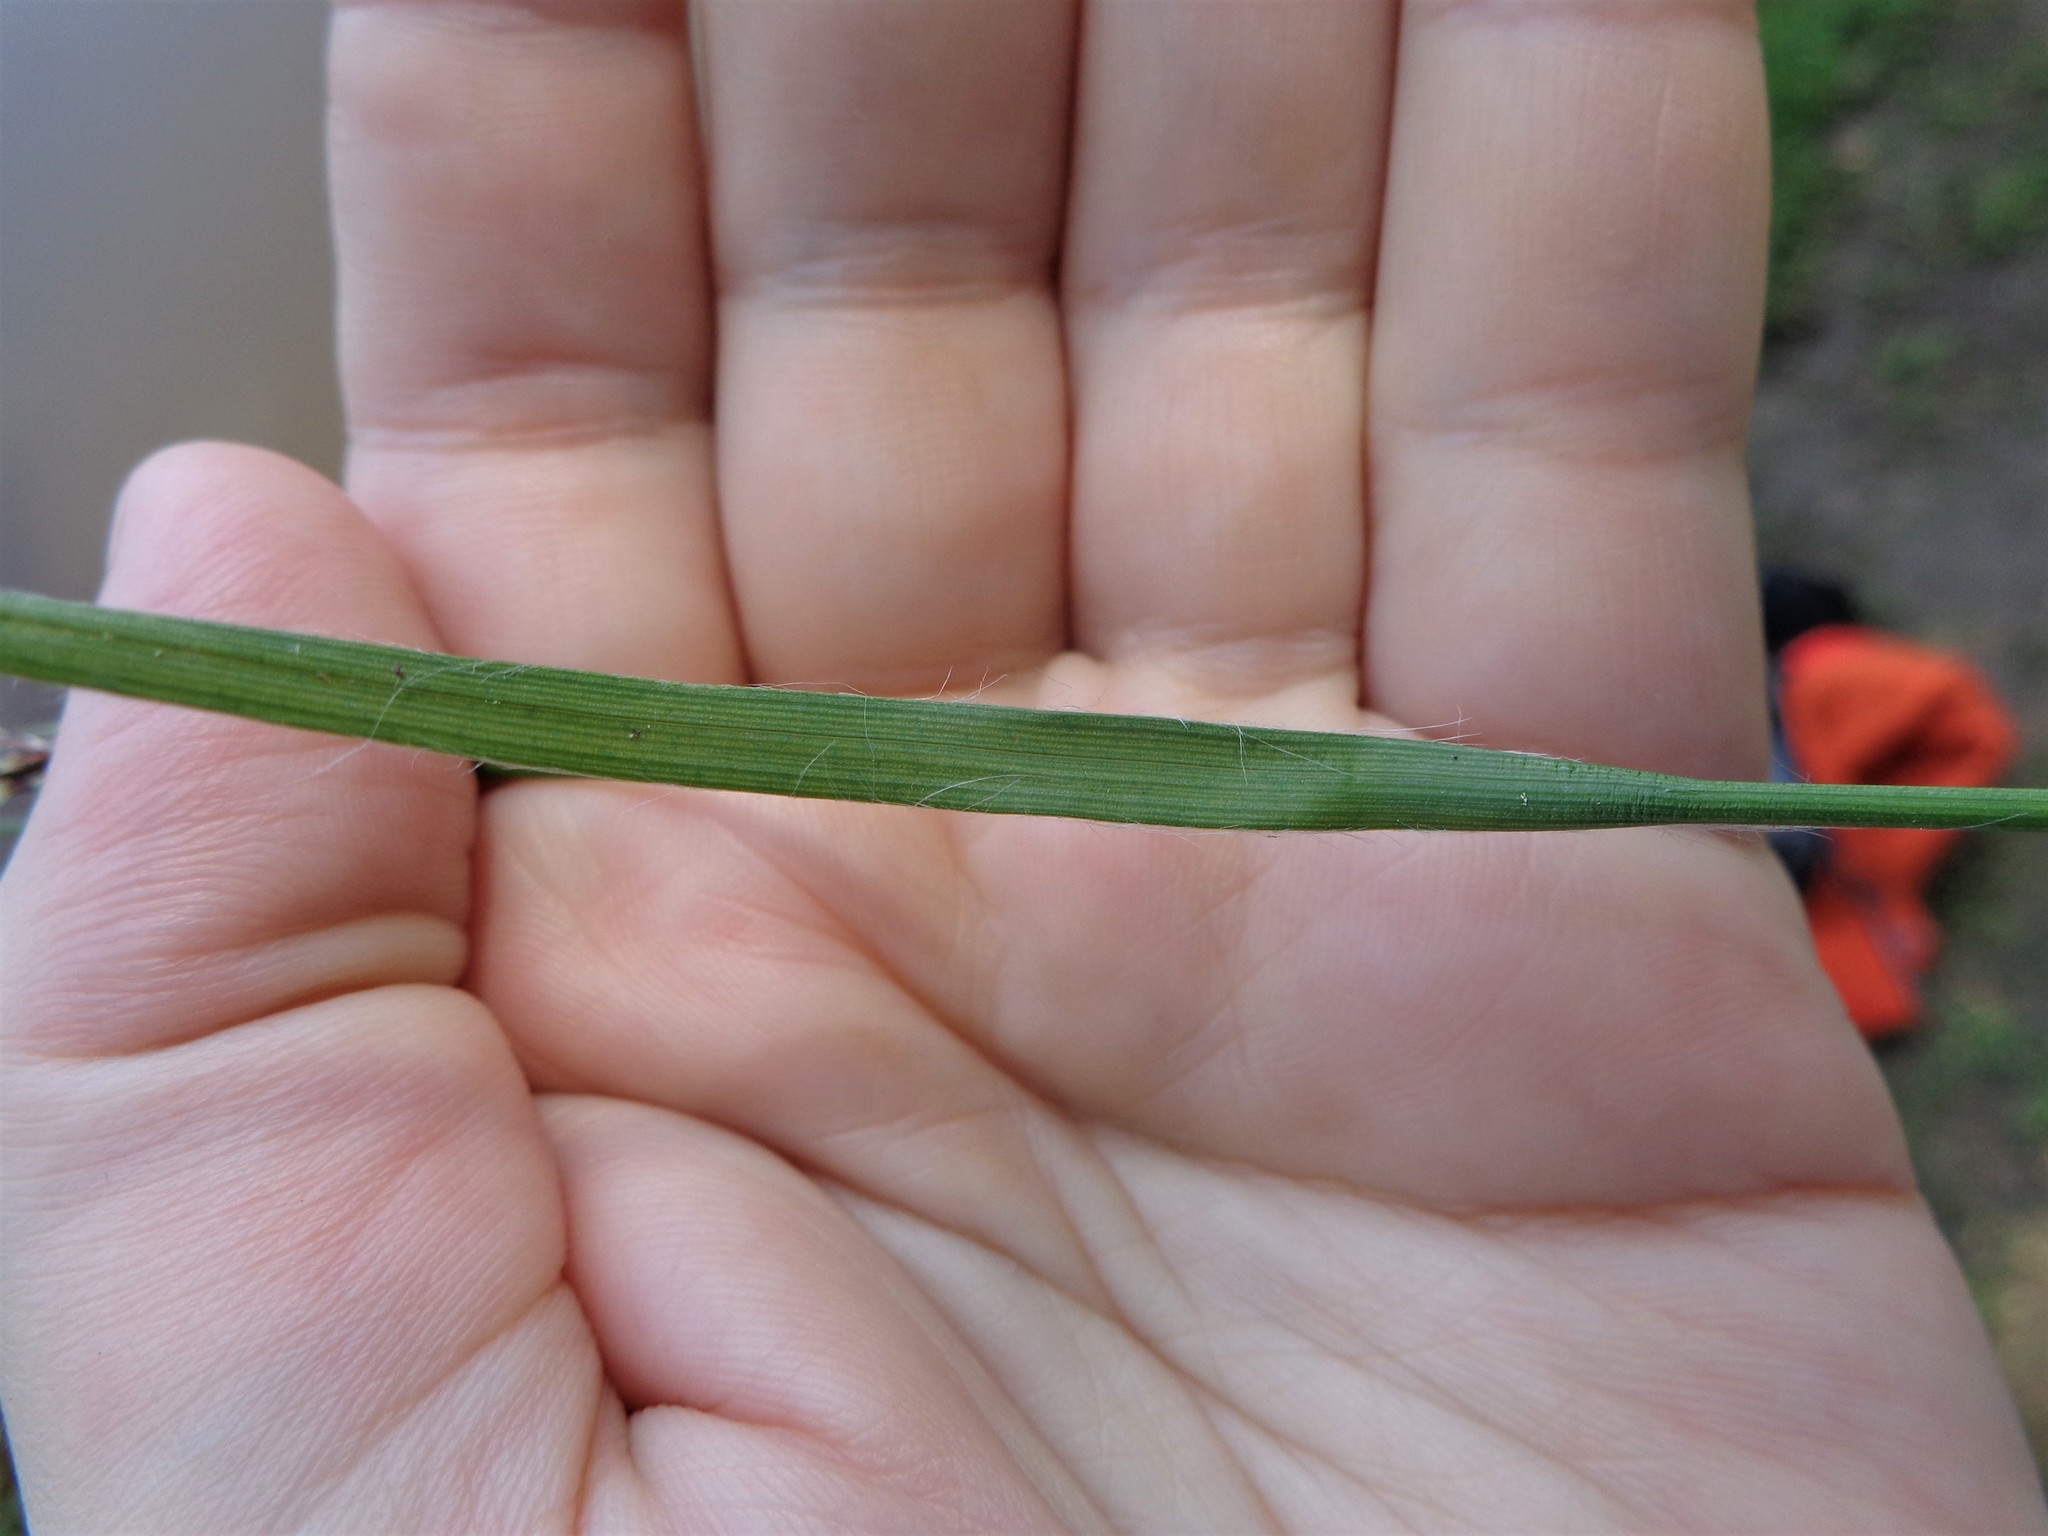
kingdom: Plantae
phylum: Tracheophyta
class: Liliopsida
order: Poales
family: Juncaceae
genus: Luzula
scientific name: Luzula multiflora
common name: Heath wood-rush
